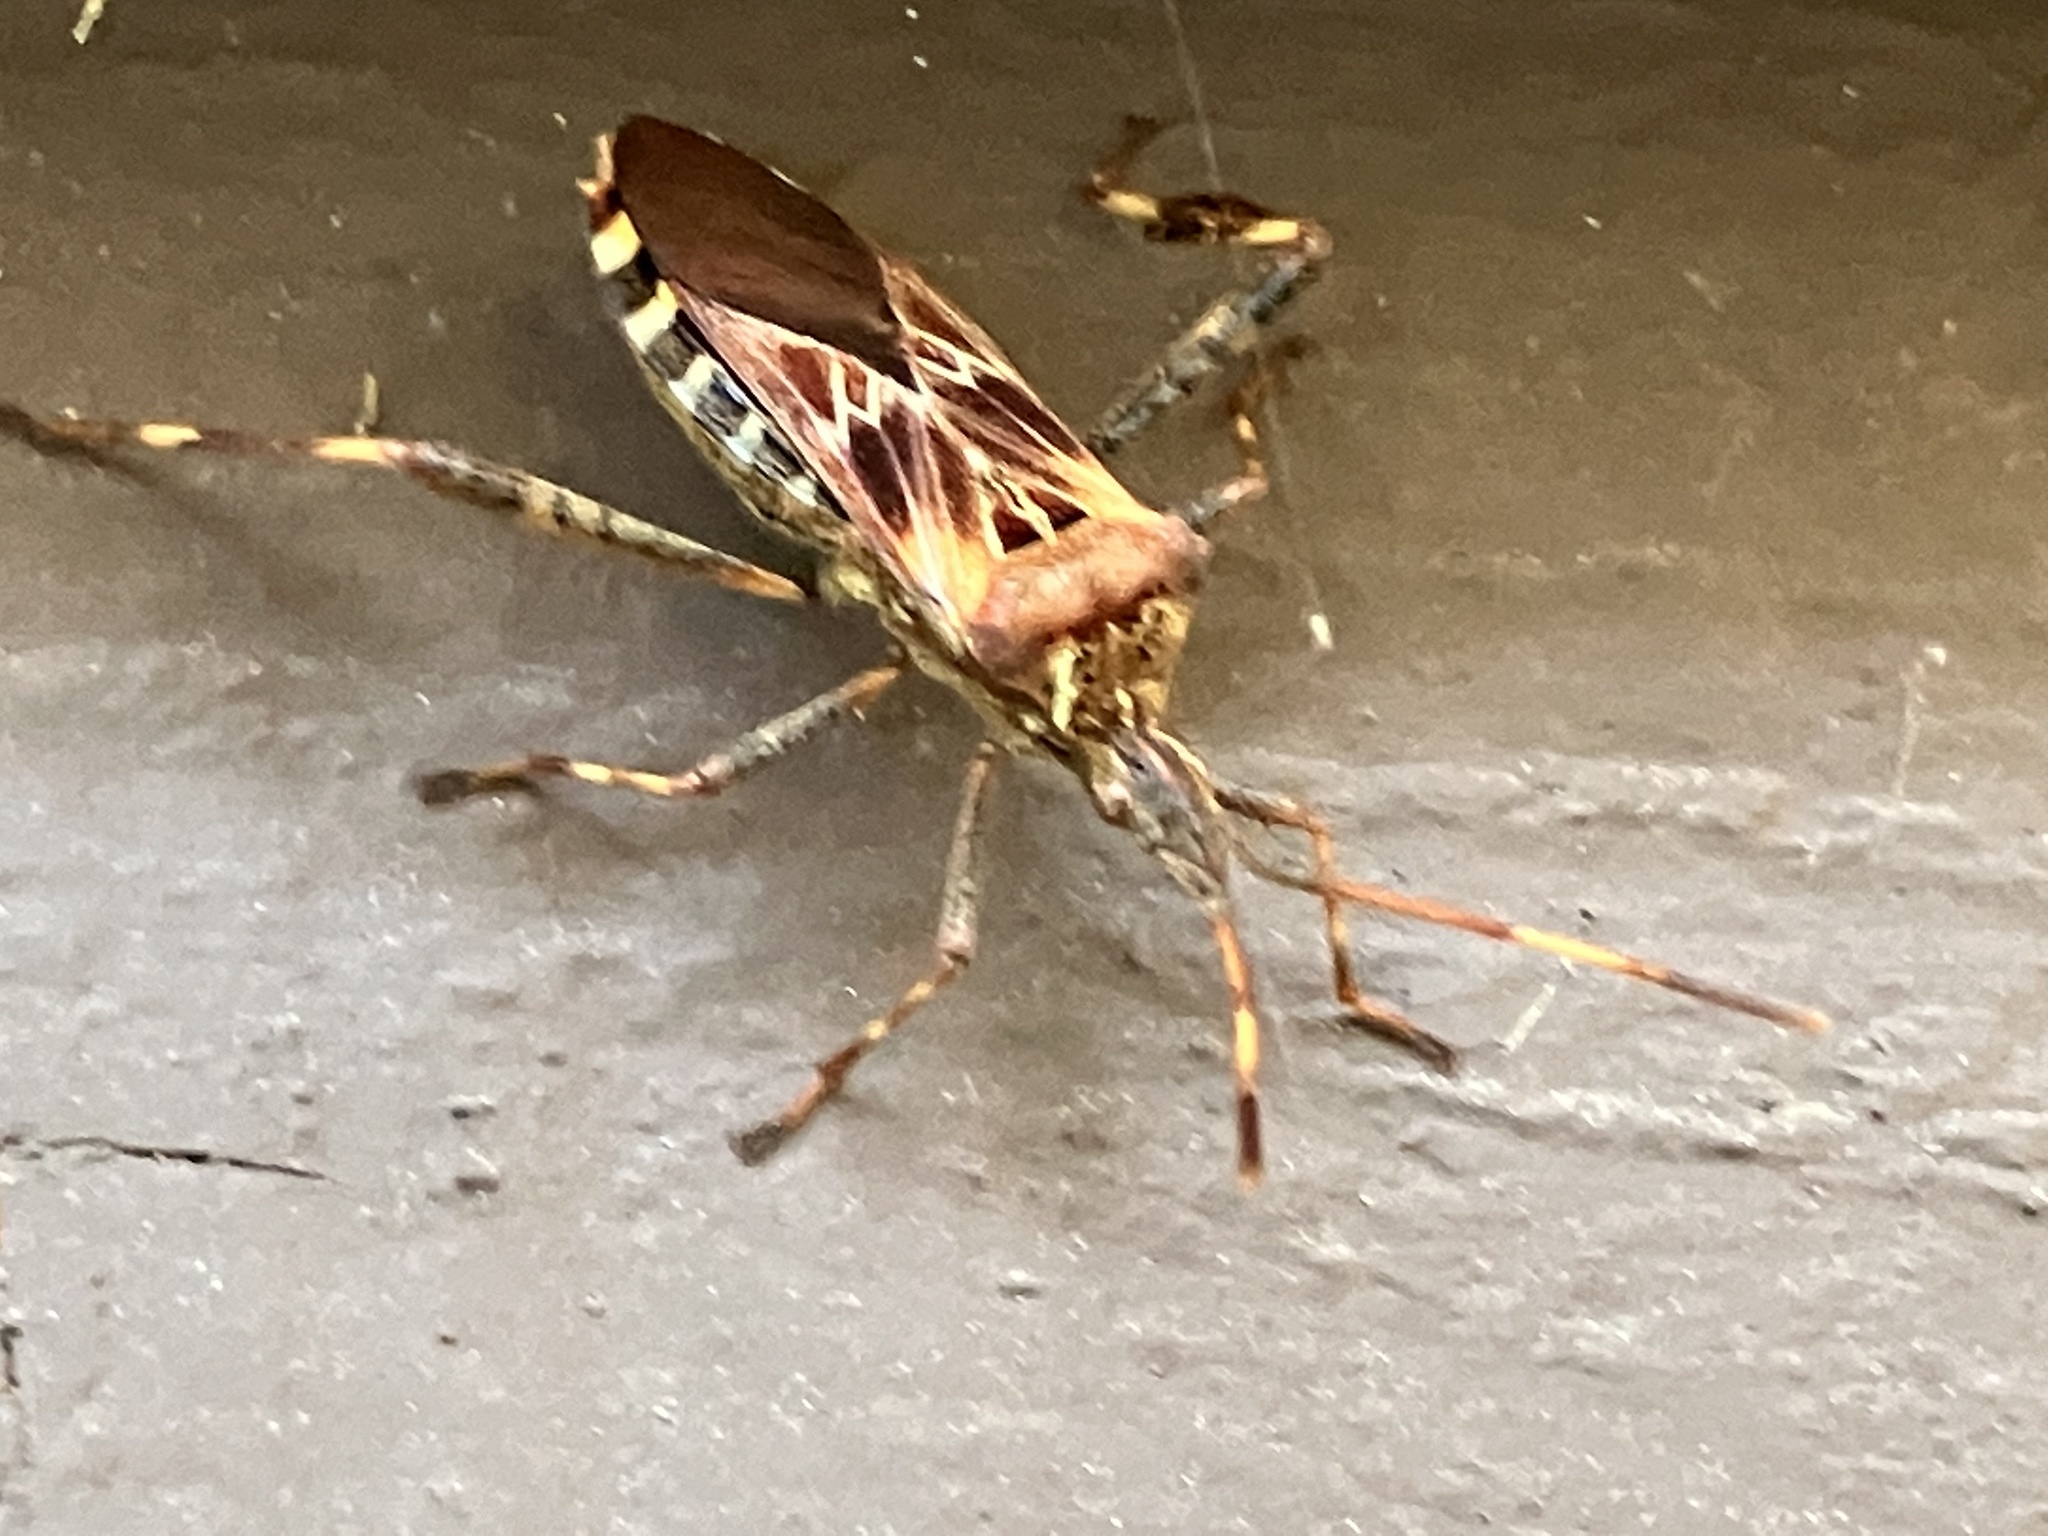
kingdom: Animalia
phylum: Arthropoda
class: Insecta
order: Hemiptera
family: Coreidae
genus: Leptoglossus
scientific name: Leptoglossus occidentalis
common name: Western conifer-seed bug
